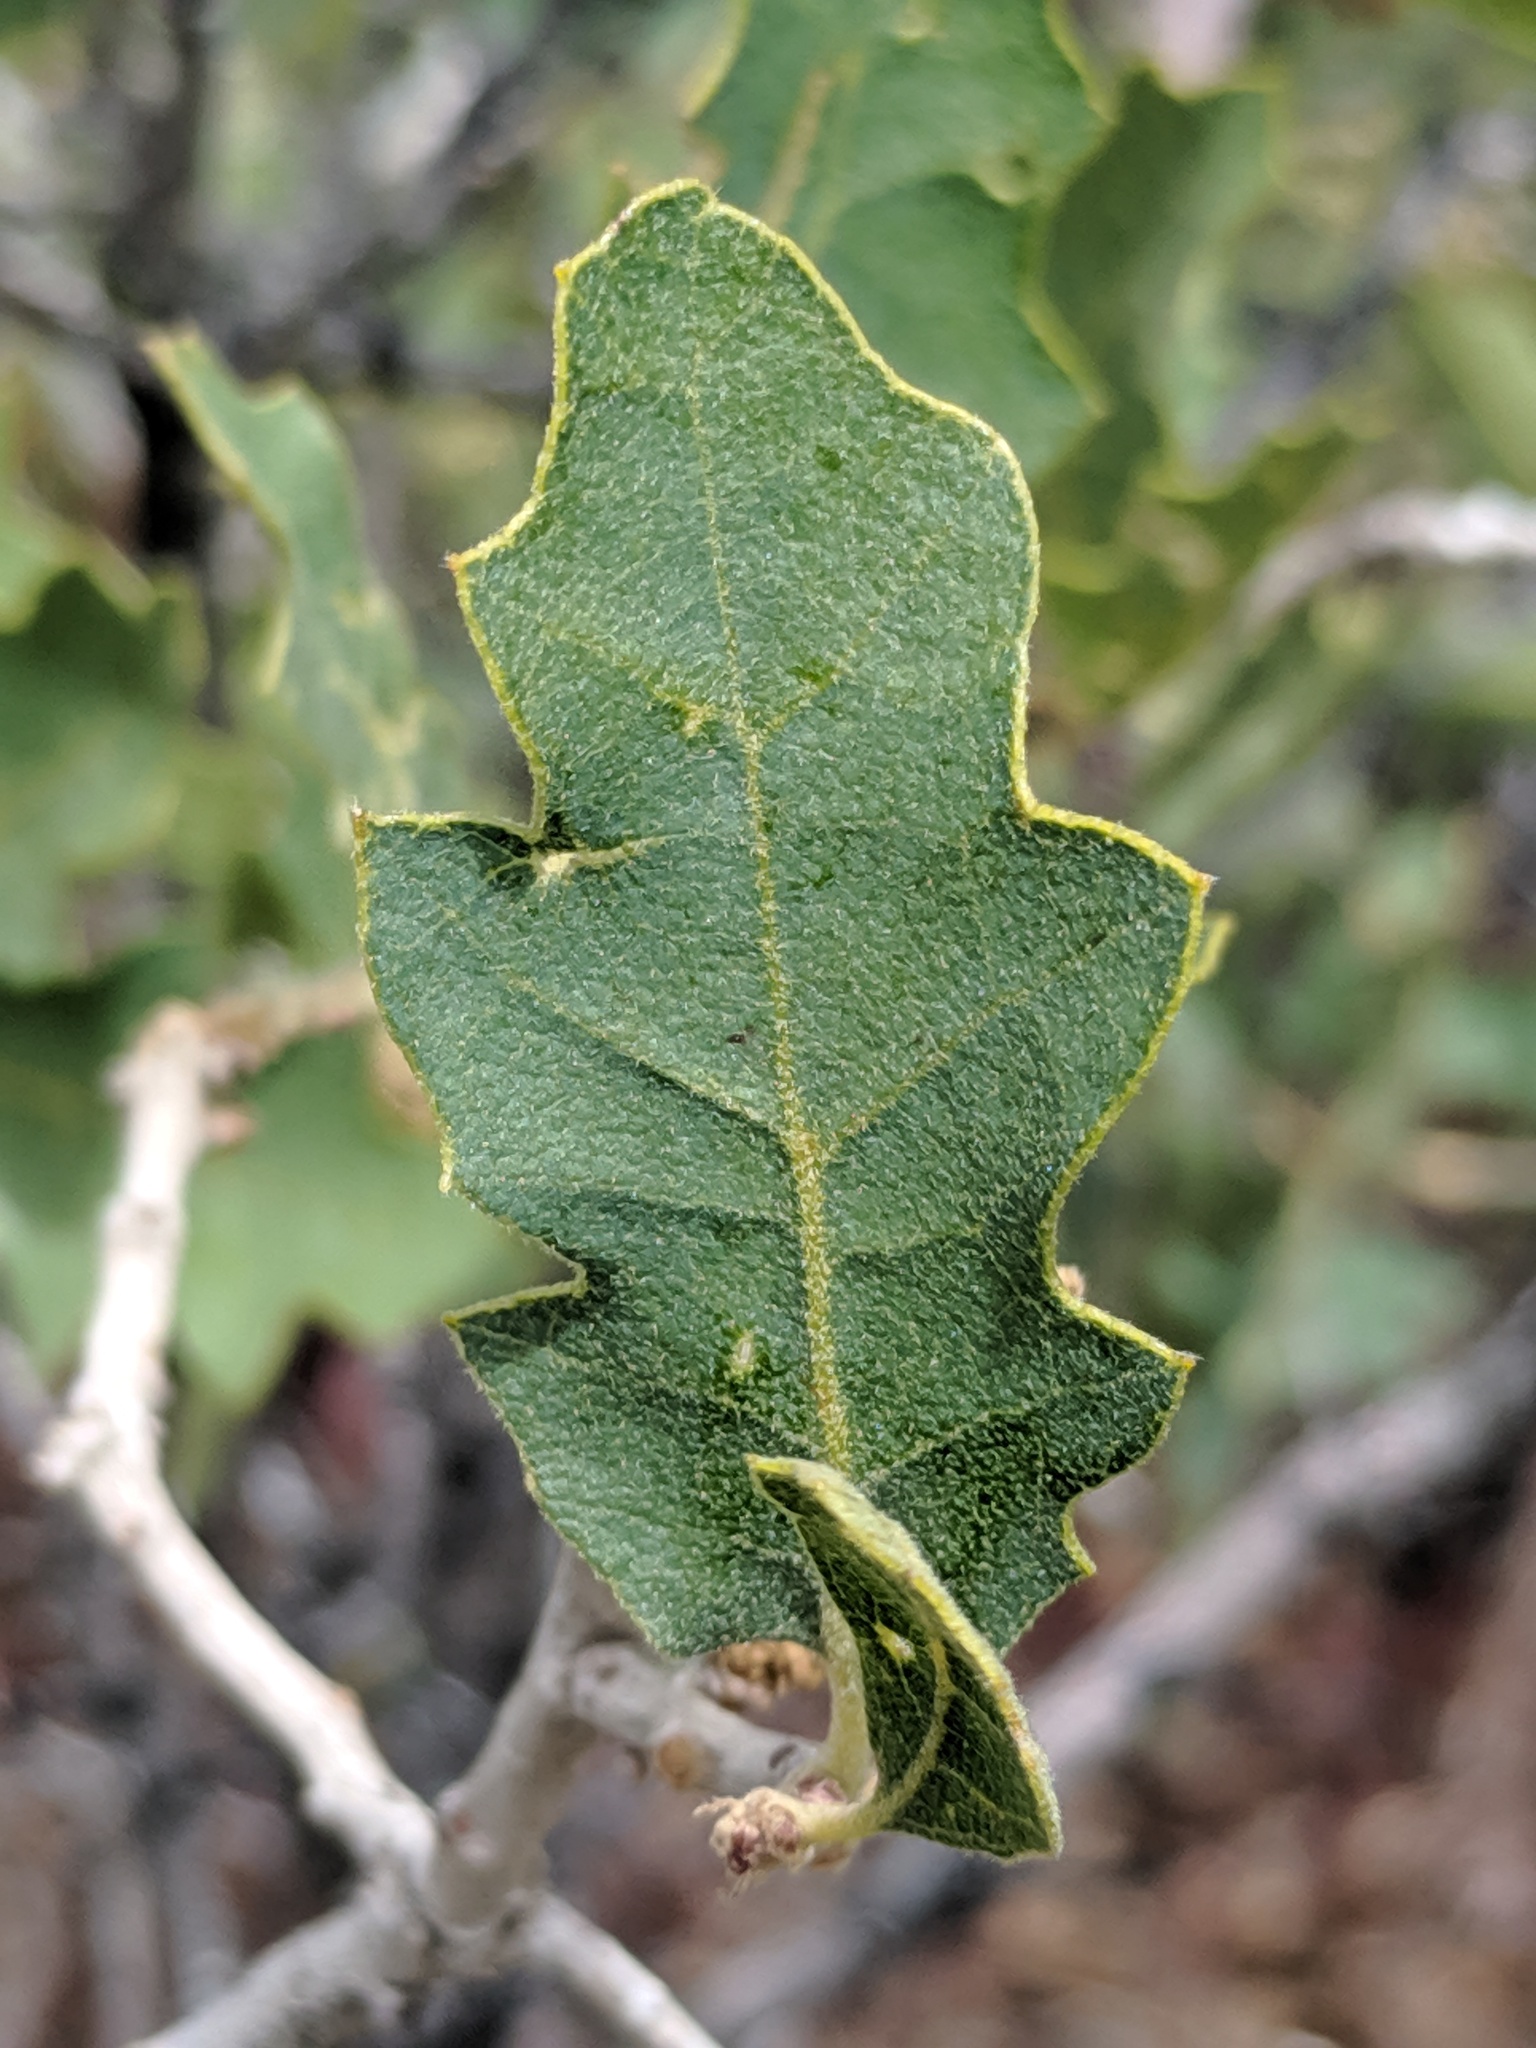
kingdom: Plantae
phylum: Tracheophyta
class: Magnoliopsida
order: Fagales
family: Fagaceae
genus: Quercus
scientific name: Quercus welshii
